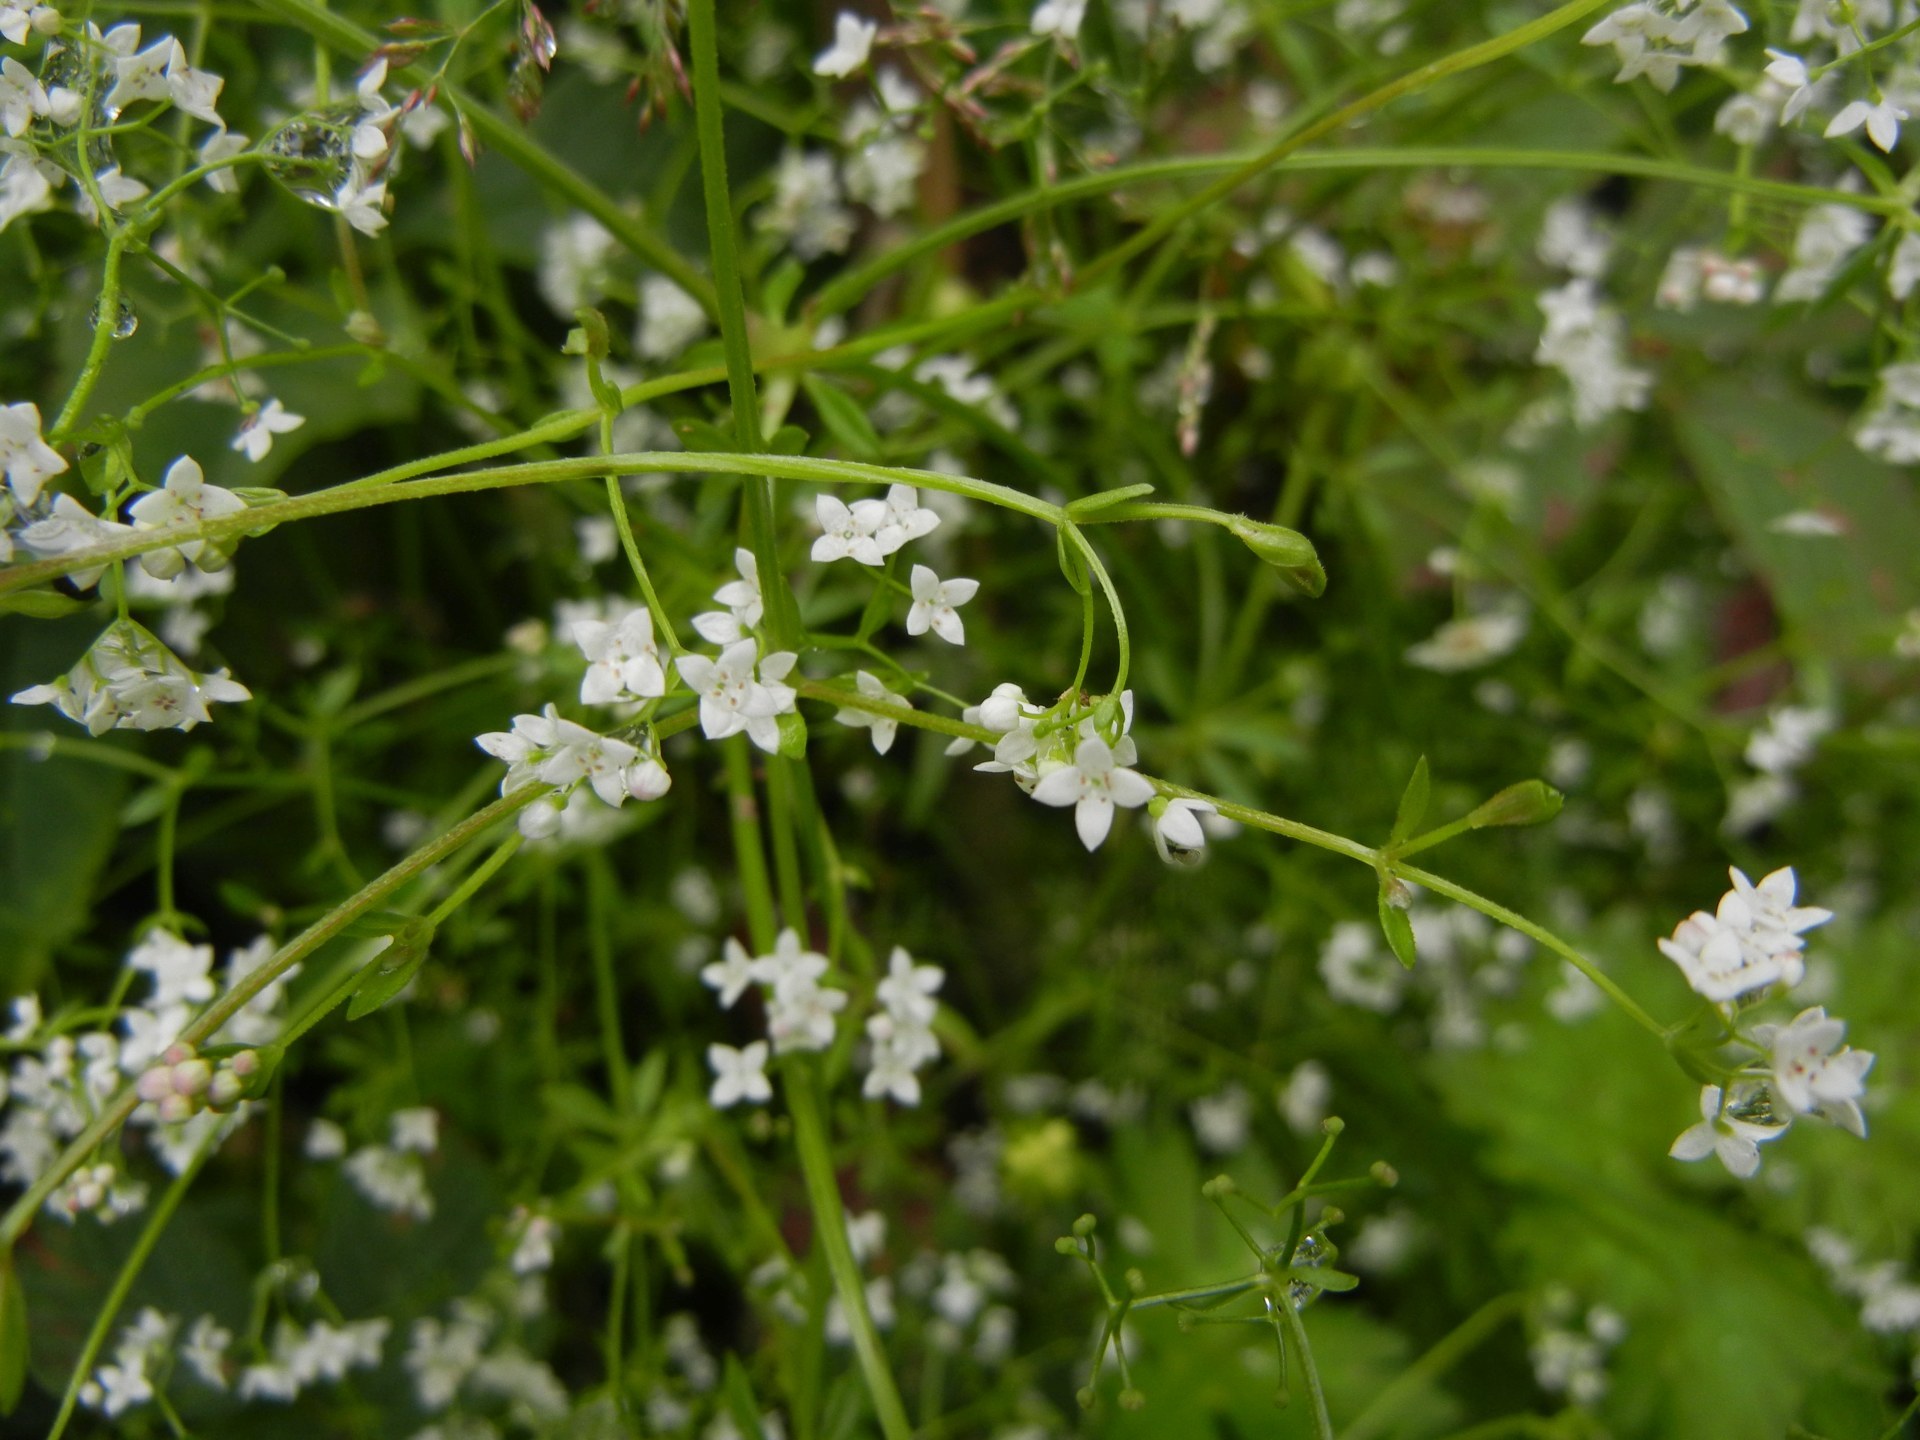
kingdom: Plantae
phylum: Tracheophyta
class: Magnoliopsida
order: Gentianales
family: Rubiaceae
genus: Galium
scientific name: Galium album
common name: White bedstraw
